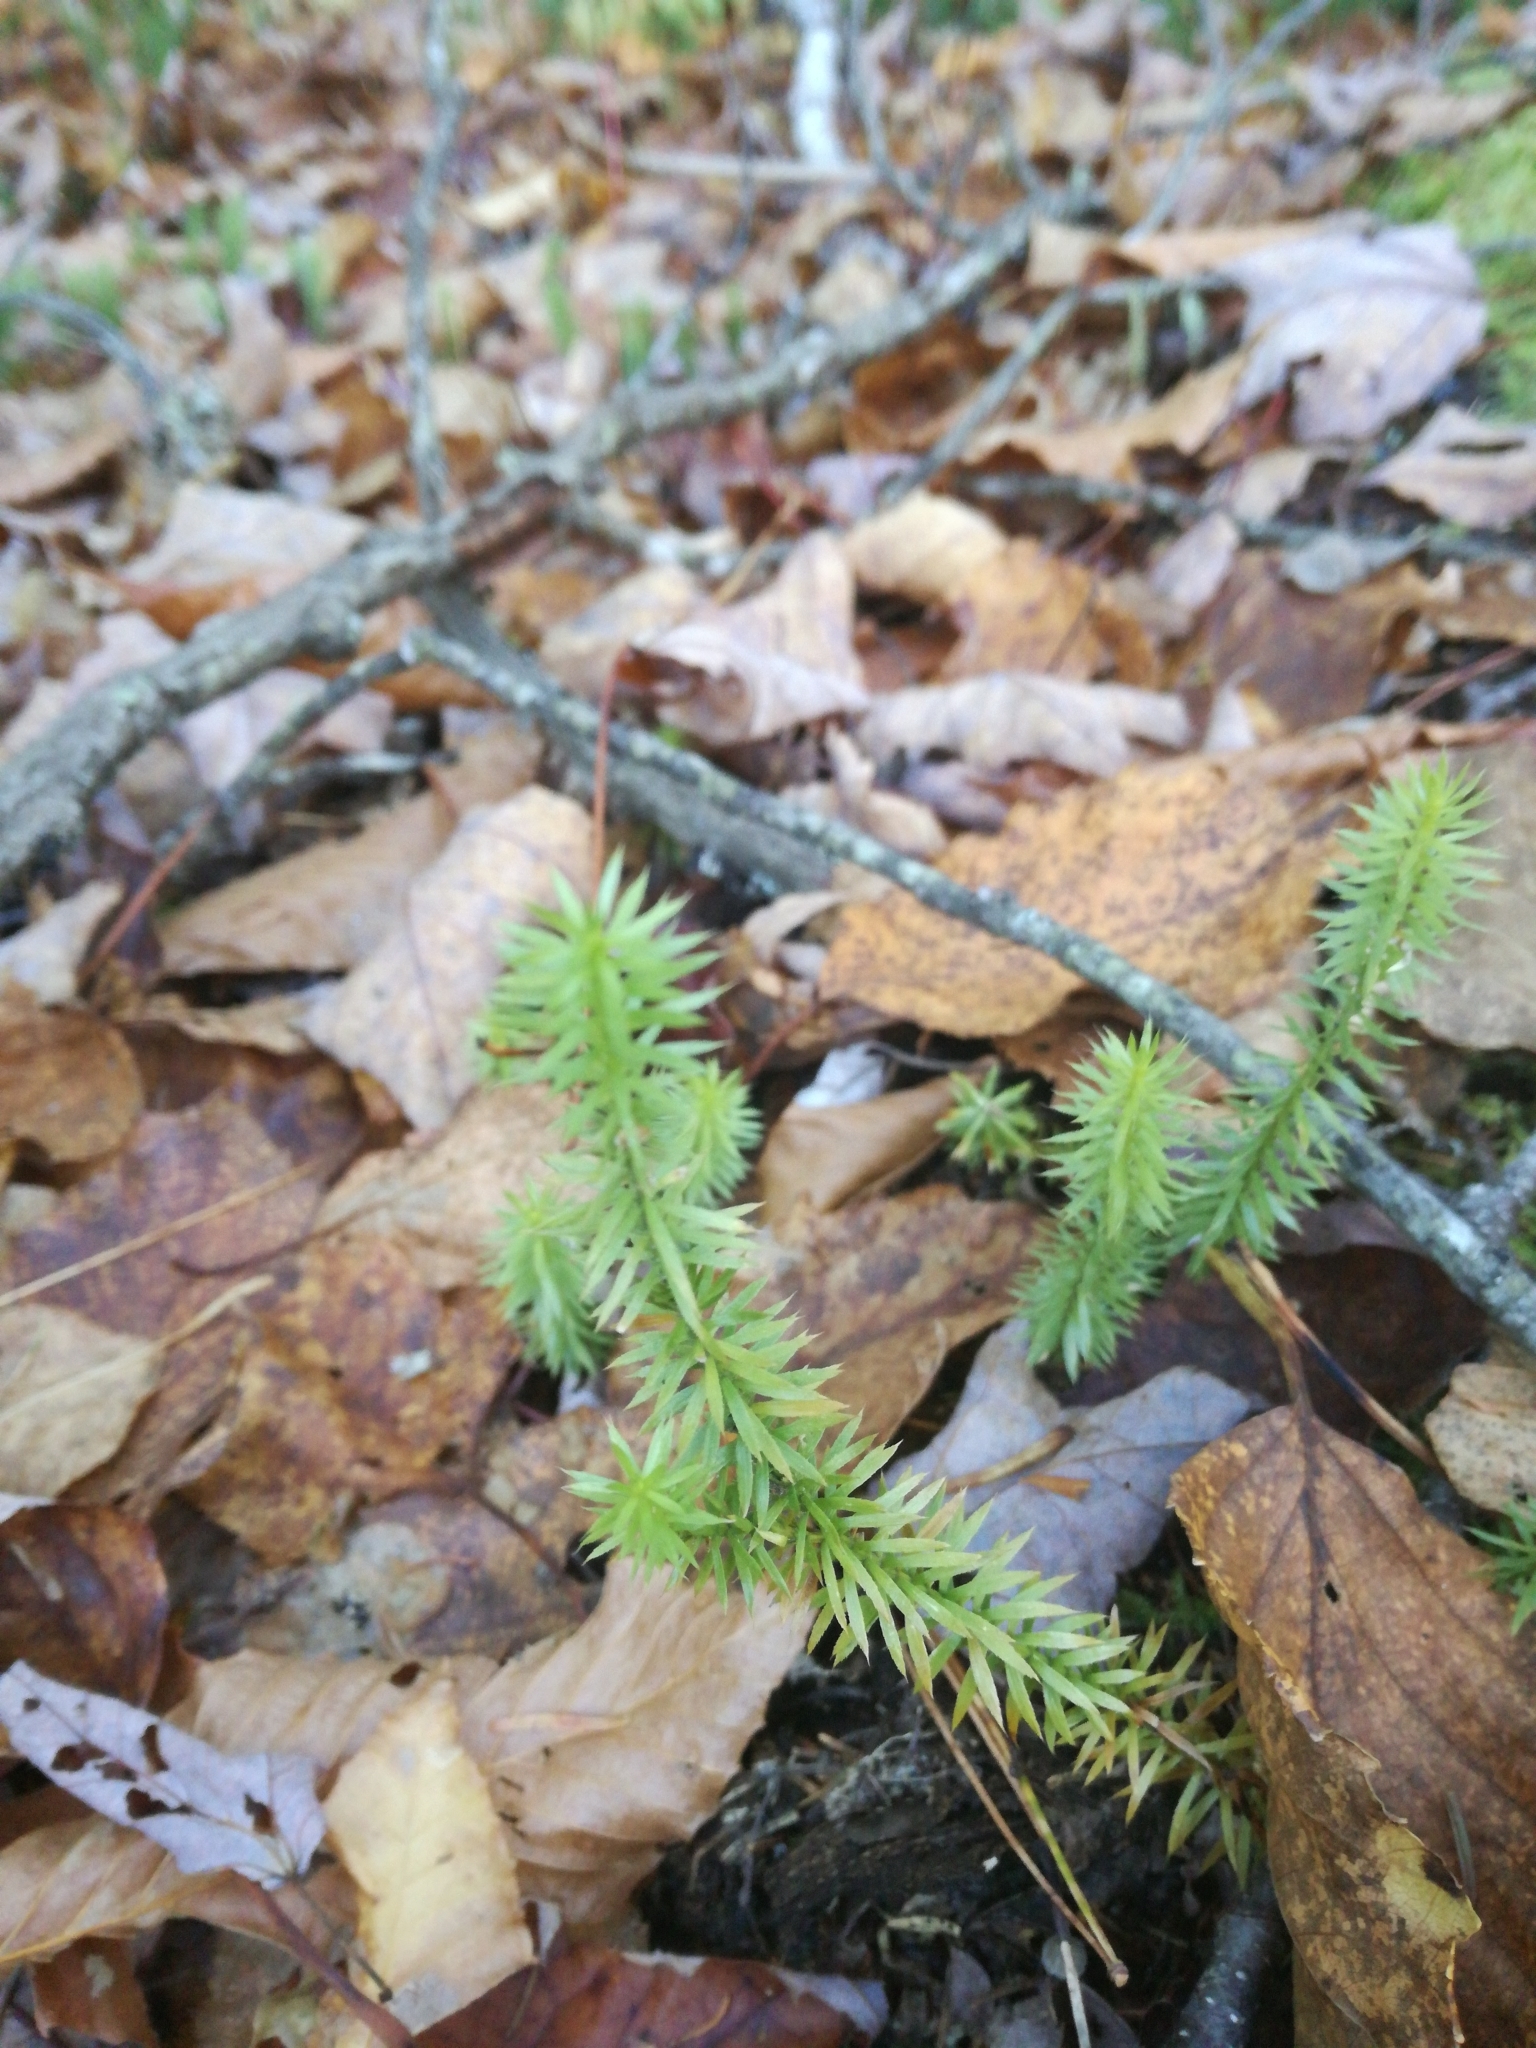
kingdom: Plantae
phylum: Tracheophyta
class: Lycopodiopsida
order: Lycopodiales
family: Lycopodiaceae
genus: Huperzia
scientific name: Huperzia lucidula
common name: Shining clubmoss
